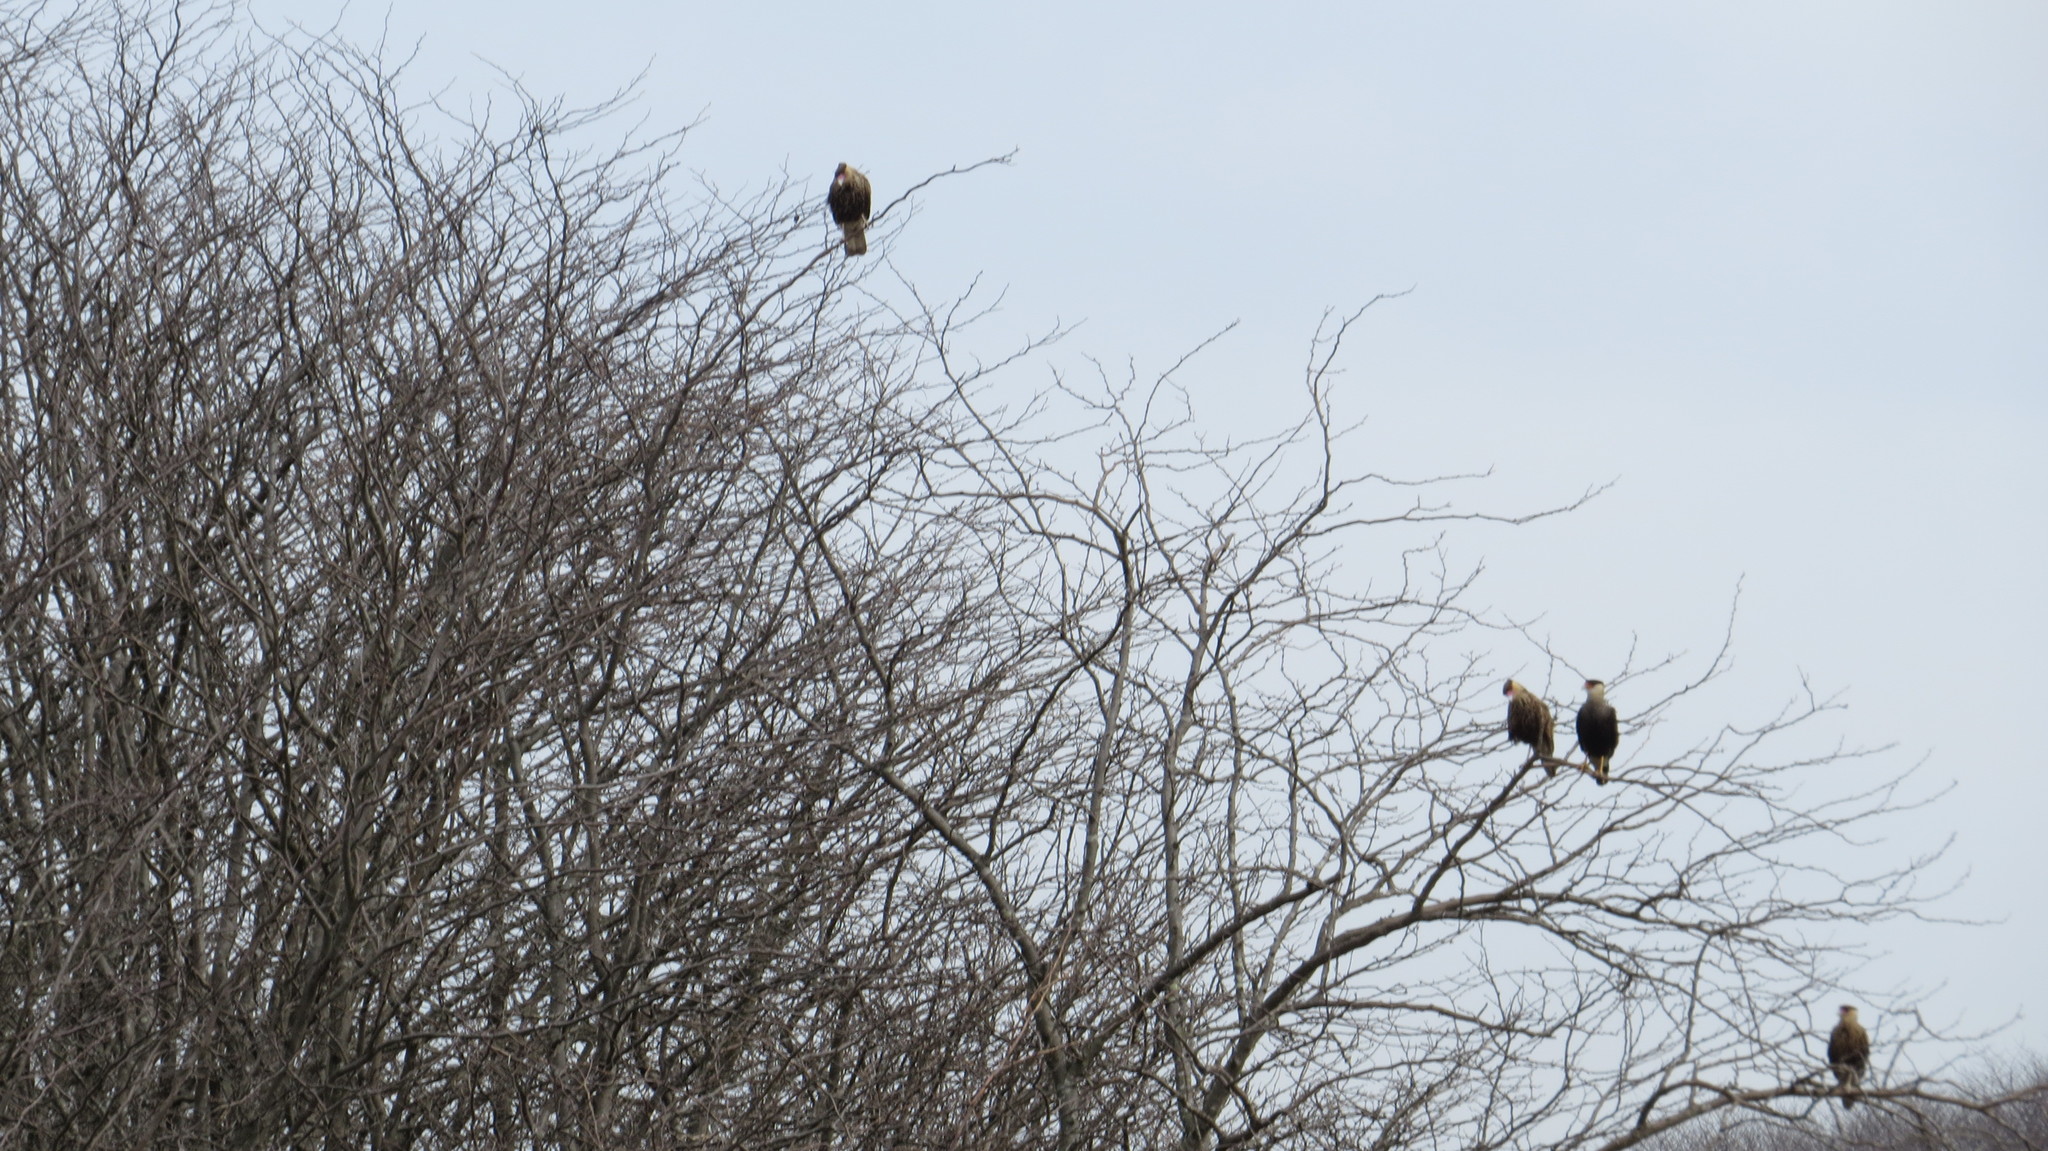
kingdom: Animalia
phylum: Chordata
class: Aves
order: Falconiformes
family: Falconidae
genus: Caracara
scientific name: Caracara plancus
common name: Southern caracara
